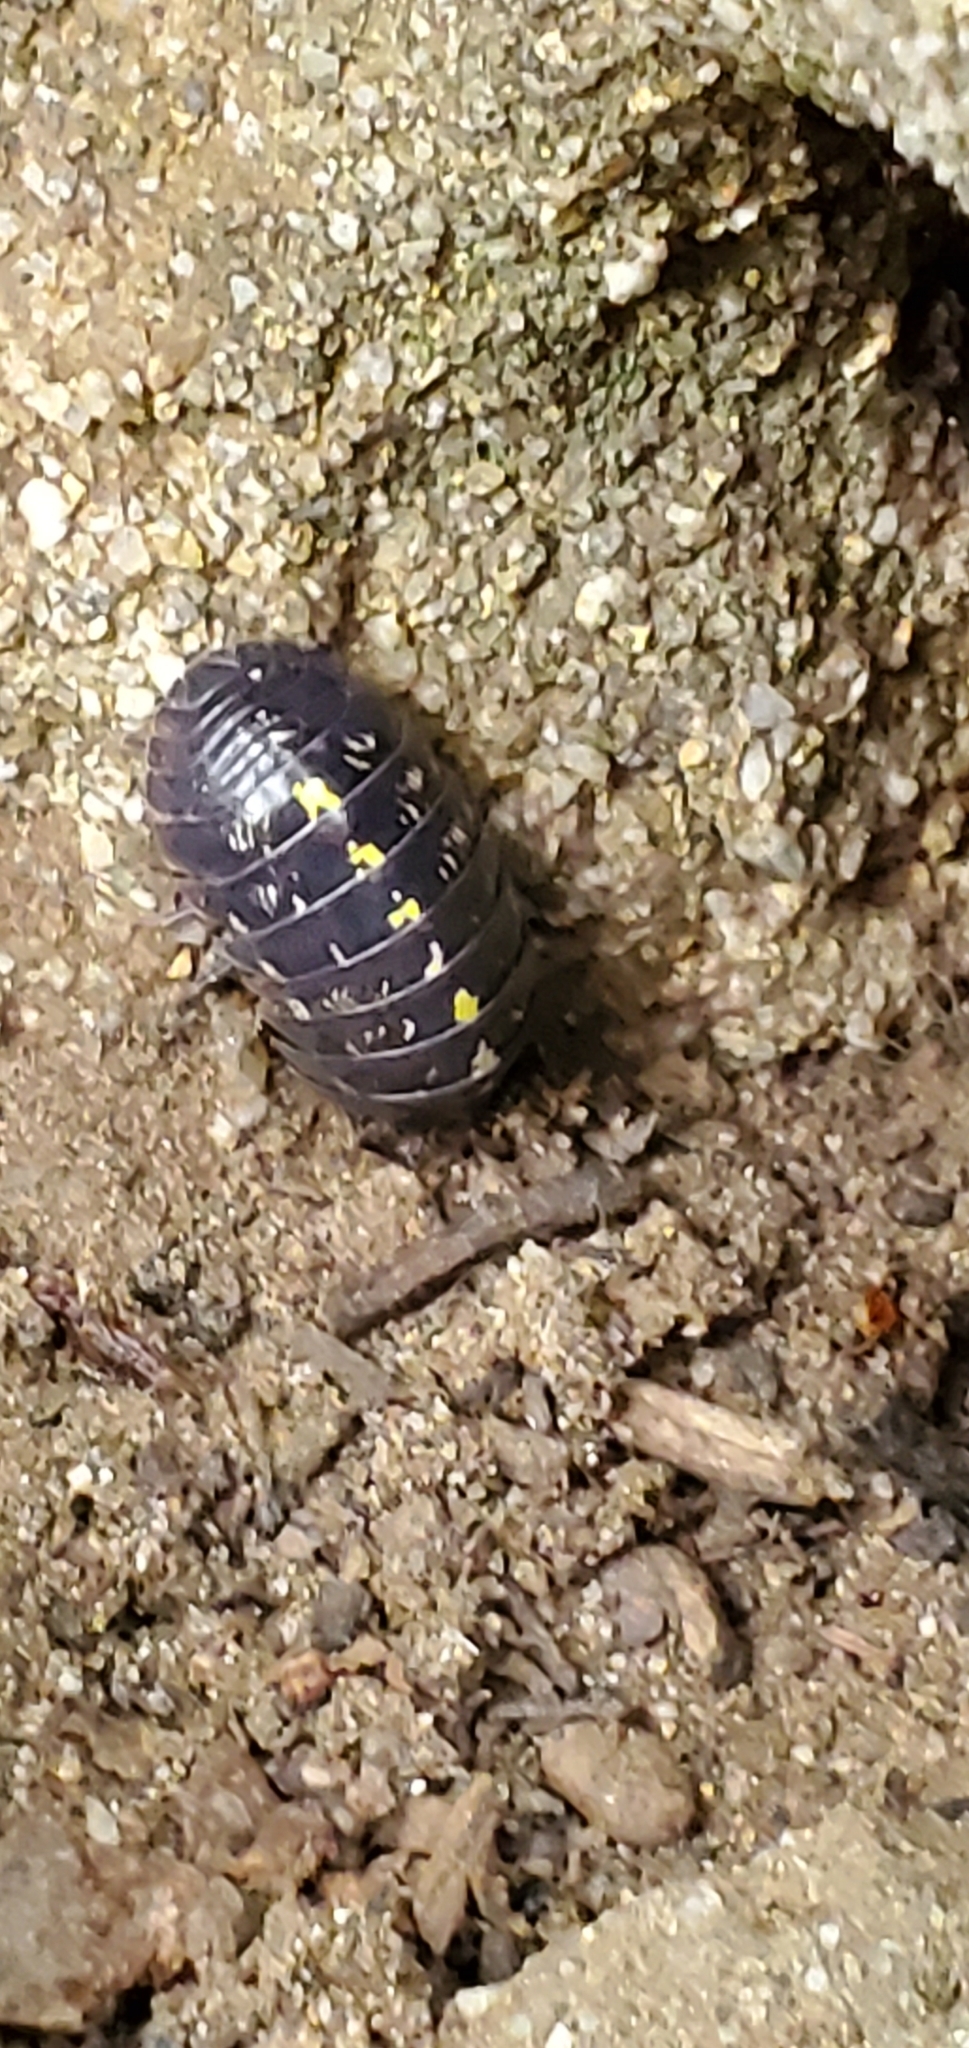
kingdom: Animalia
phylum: Arthropoda
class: Malacostraca
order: Isopoda
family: Armadillidiidae
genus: Armadillidium
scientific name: Armadillidium vulgare
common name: Common pill woodlouse
